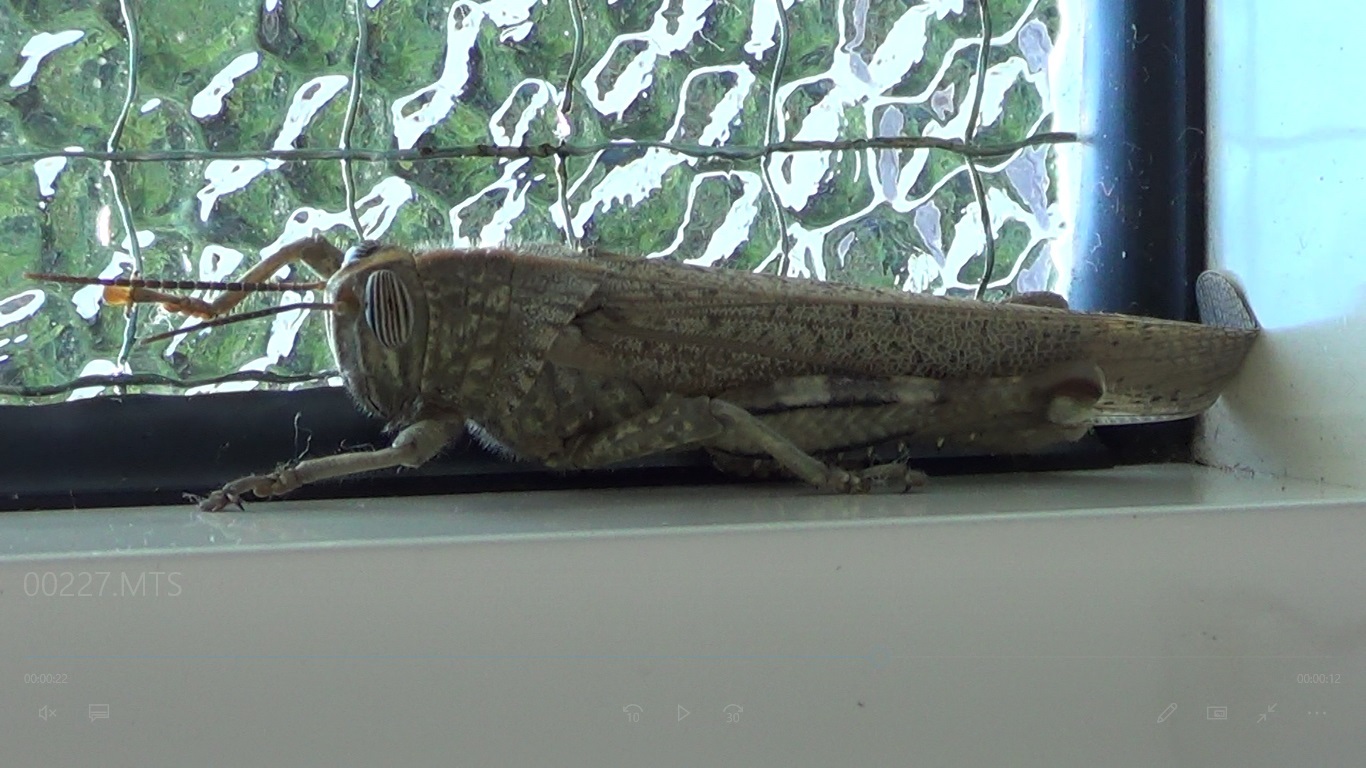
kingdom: Animalia
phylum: Arthropoda
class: Insecta
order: Orthoptera
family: Acrididae
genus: Anacridium
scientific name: Anacridium aegyptium
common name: Egyptian grasshopper
